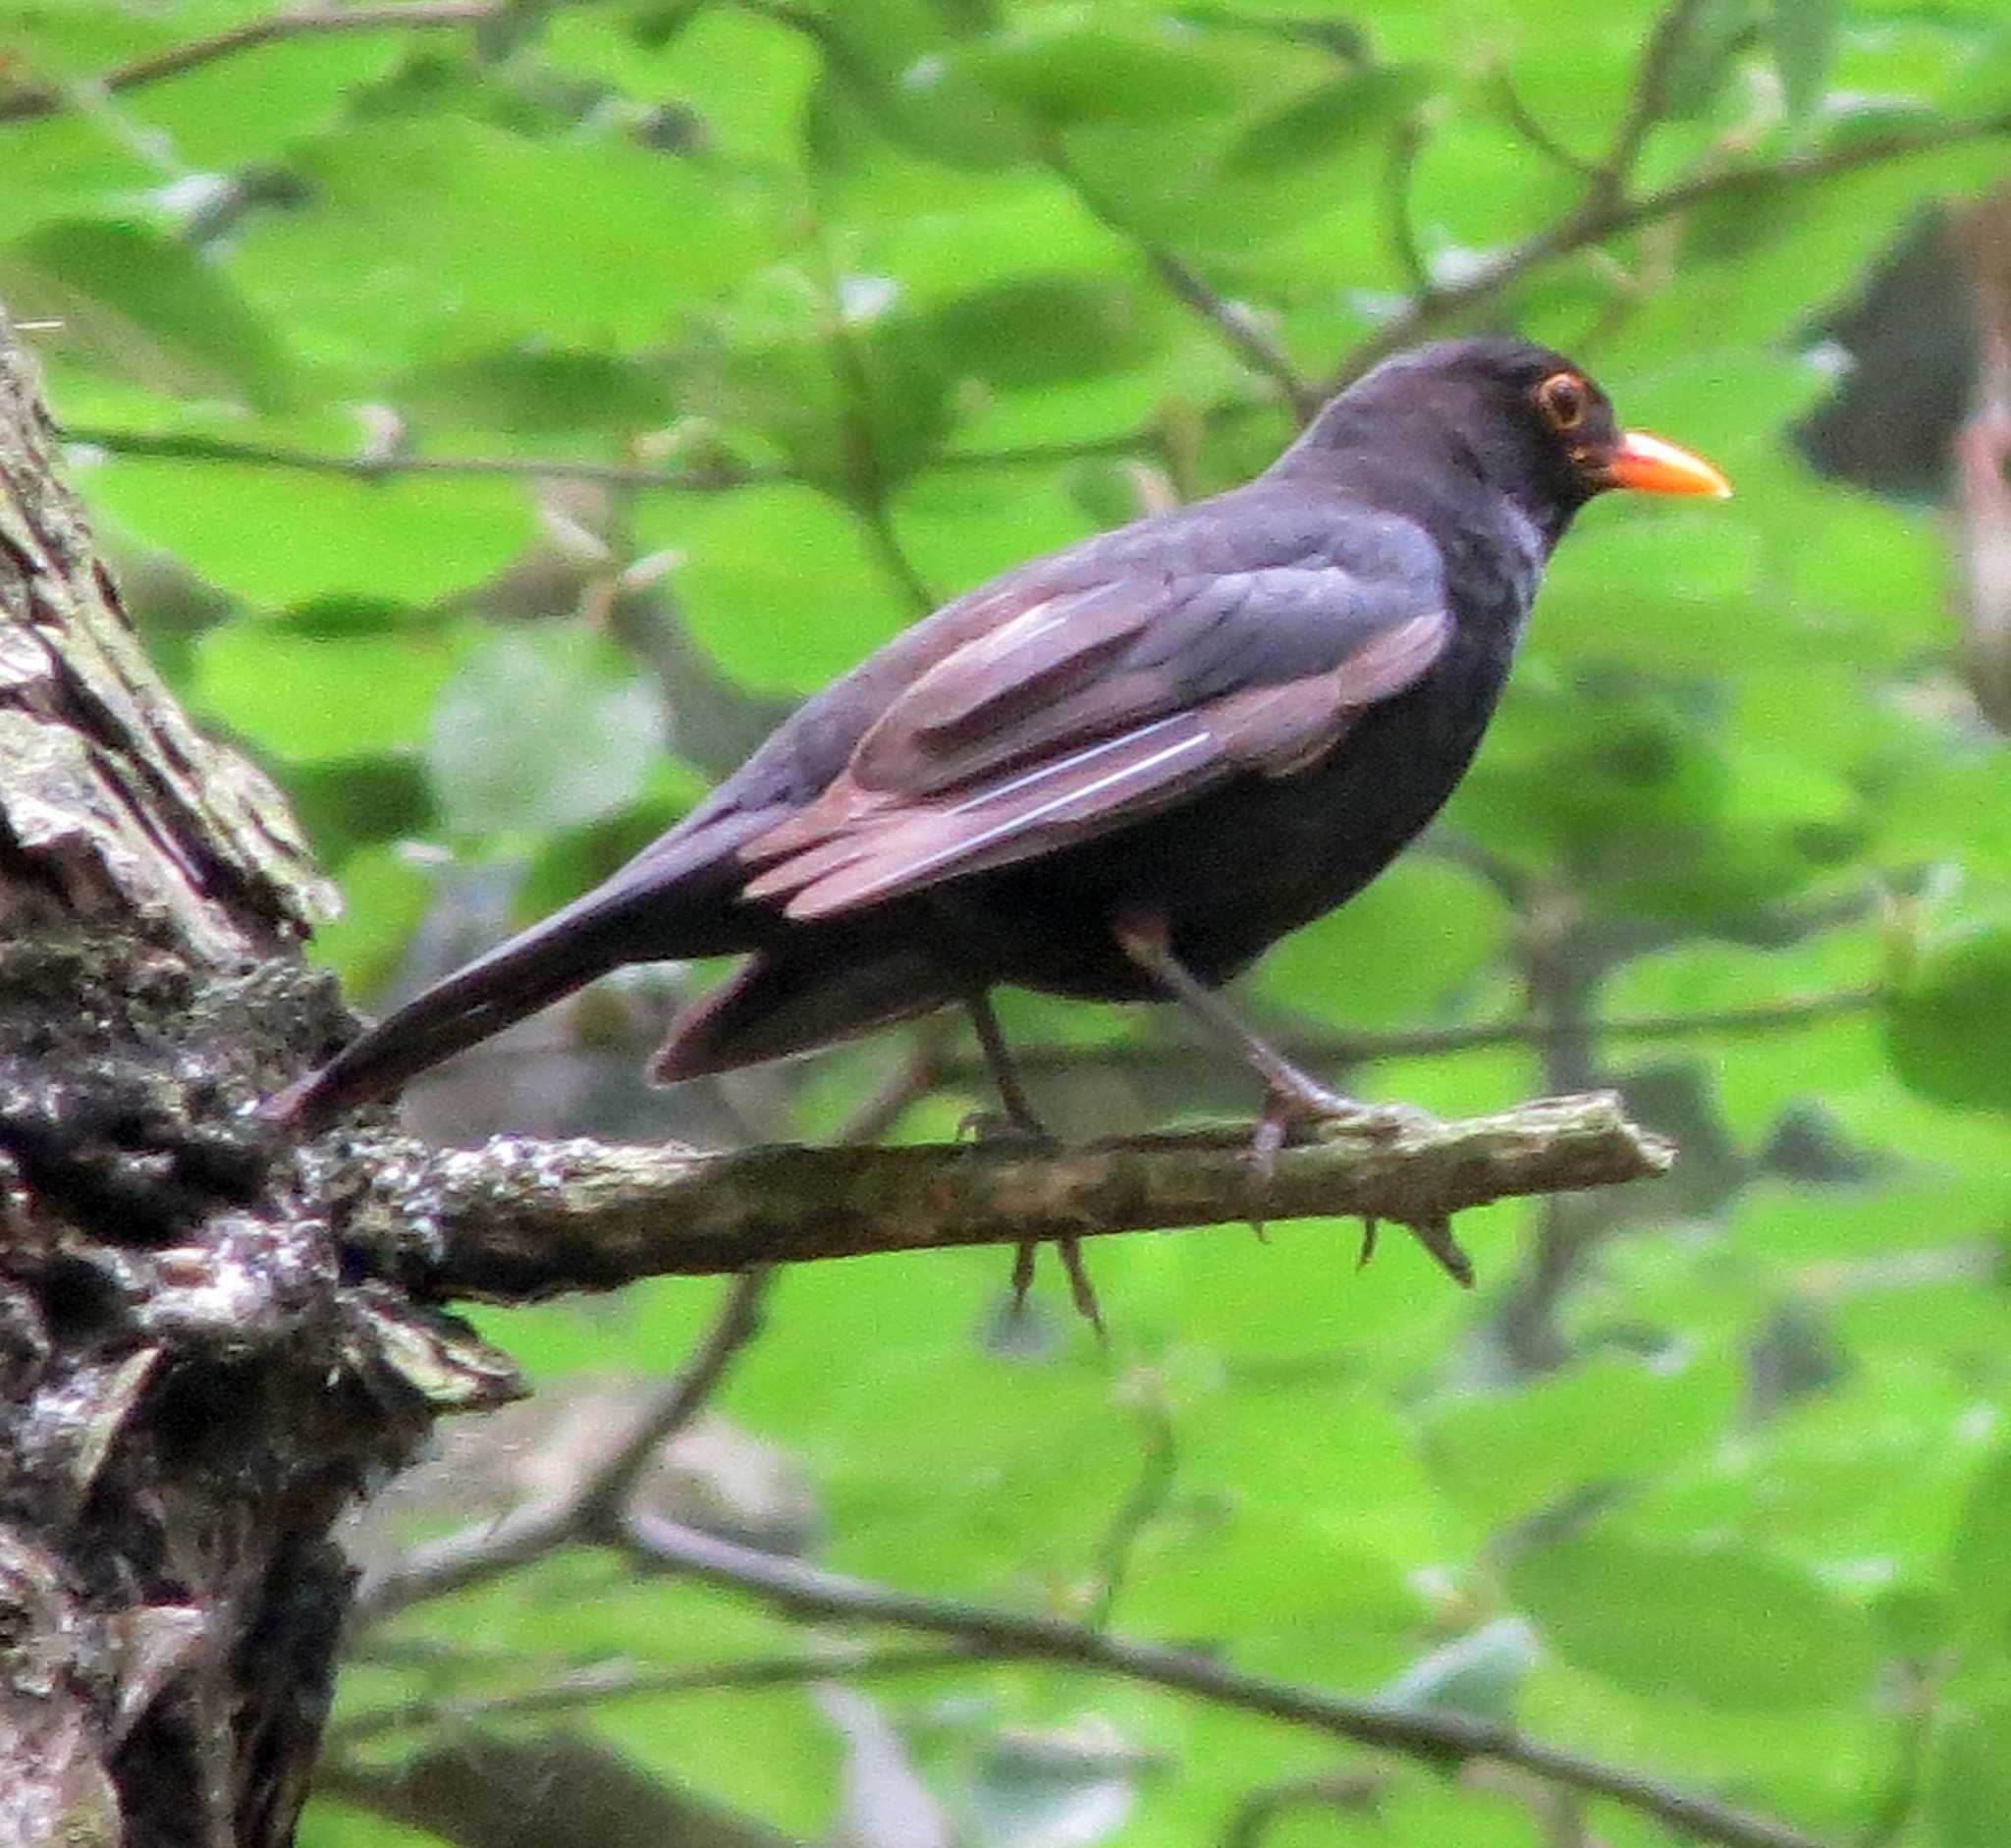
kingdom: Animalia
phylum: Chordata
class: Aves
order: Passeriformes
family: Turdidae
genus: Turdus
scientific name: Turdus merula
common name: Common blackbird
